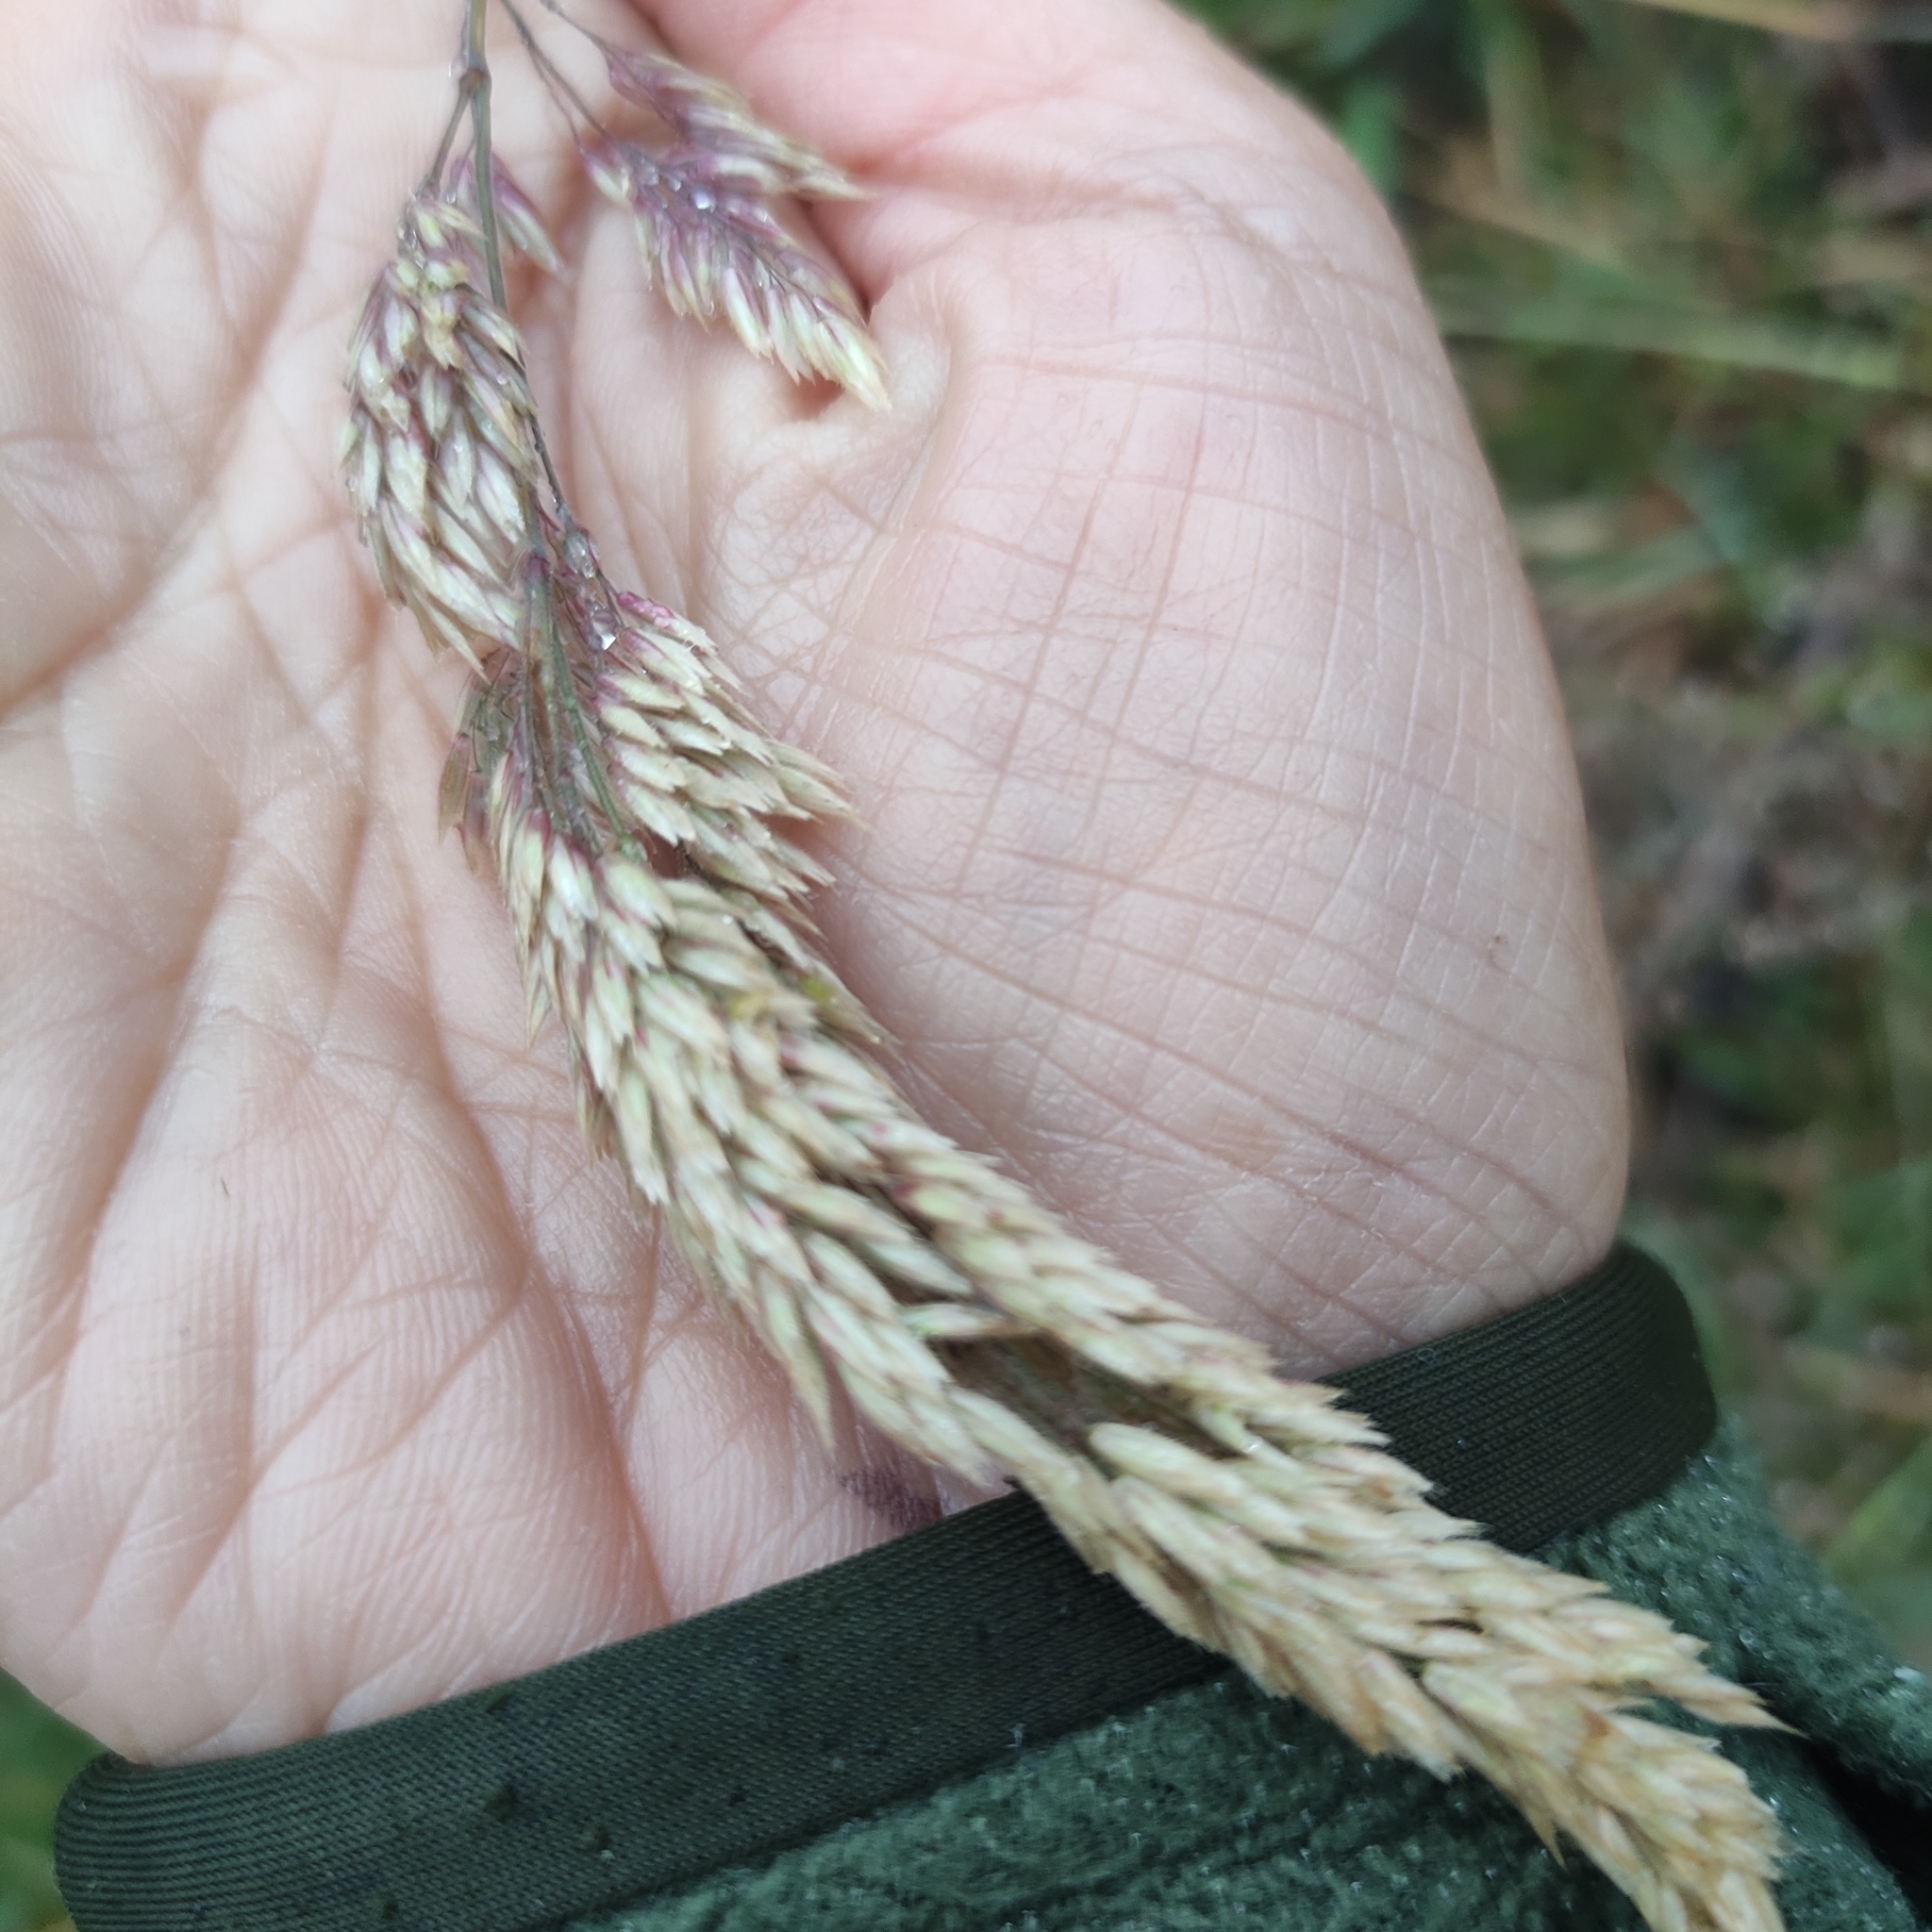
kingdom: Plantae
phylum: Tracheophyta
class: Liliopsida
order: Poales
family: Poaceae
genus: Holcus
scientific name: Holcus lanatus
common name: Yorkshire-fog
